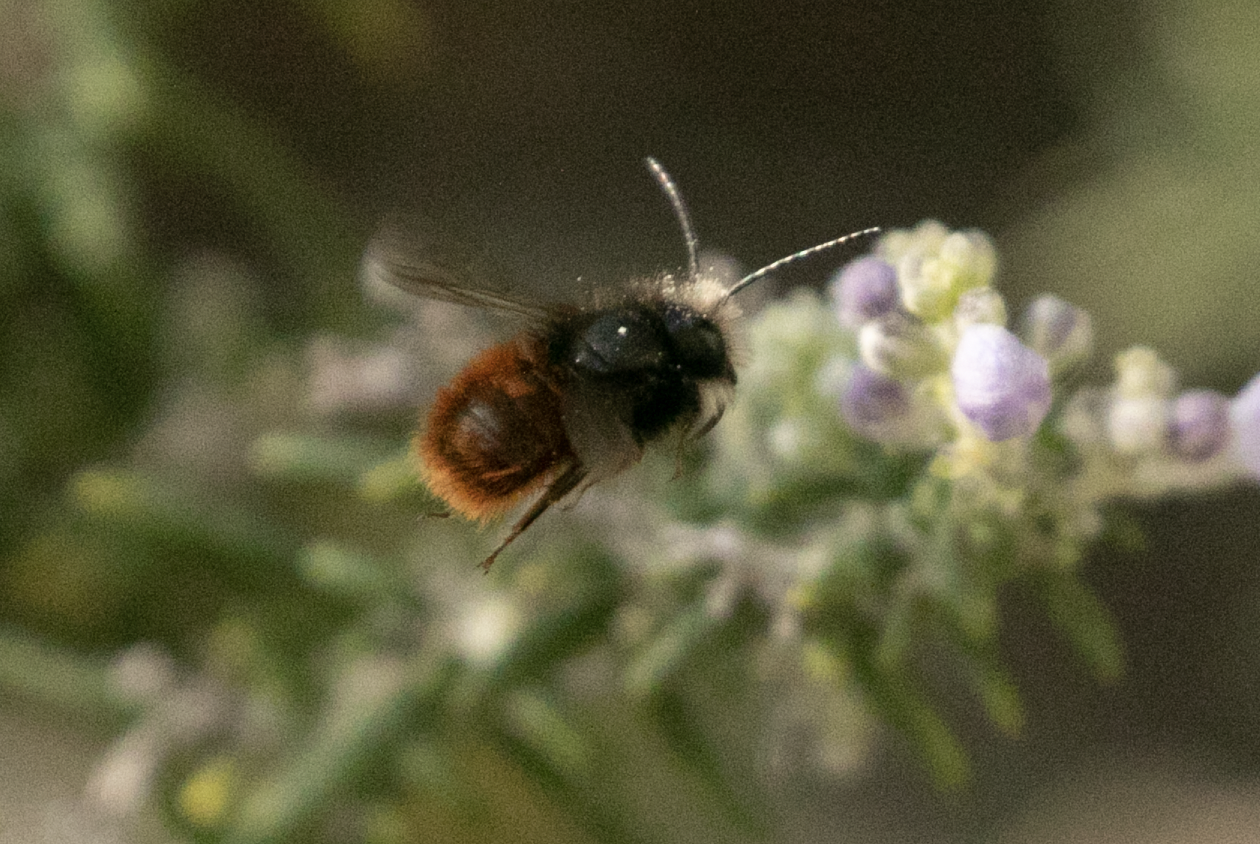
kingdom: Animalia
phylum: Arthropoda
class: Insecta
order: Hymenoptera
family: Megachilidae
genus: Osmia
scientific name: Osmia cornuta
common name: Mason bee
